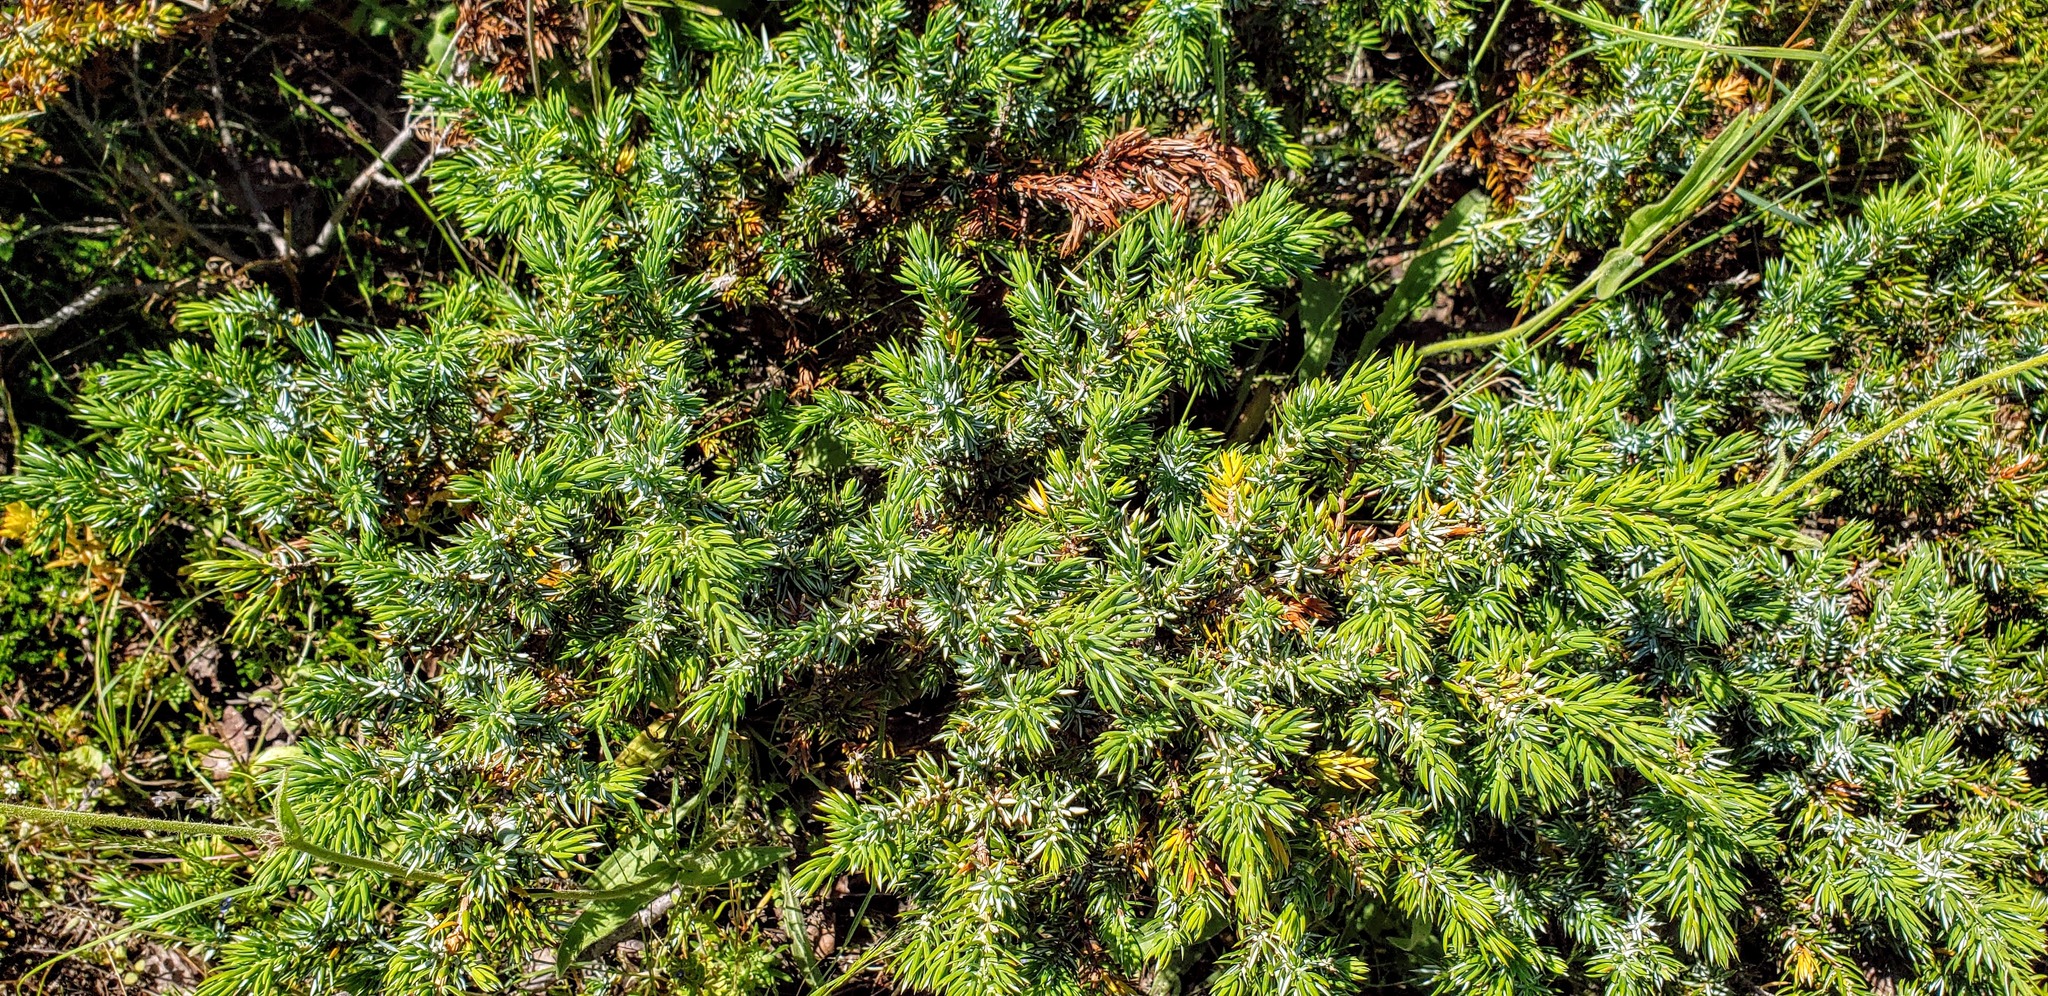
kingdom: Plantae
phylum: Tracheophyta
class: Pinopsida
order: Pinales
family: Cupressaceae
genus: Juniperus
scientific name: Juniperus communis
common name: Common juniper
